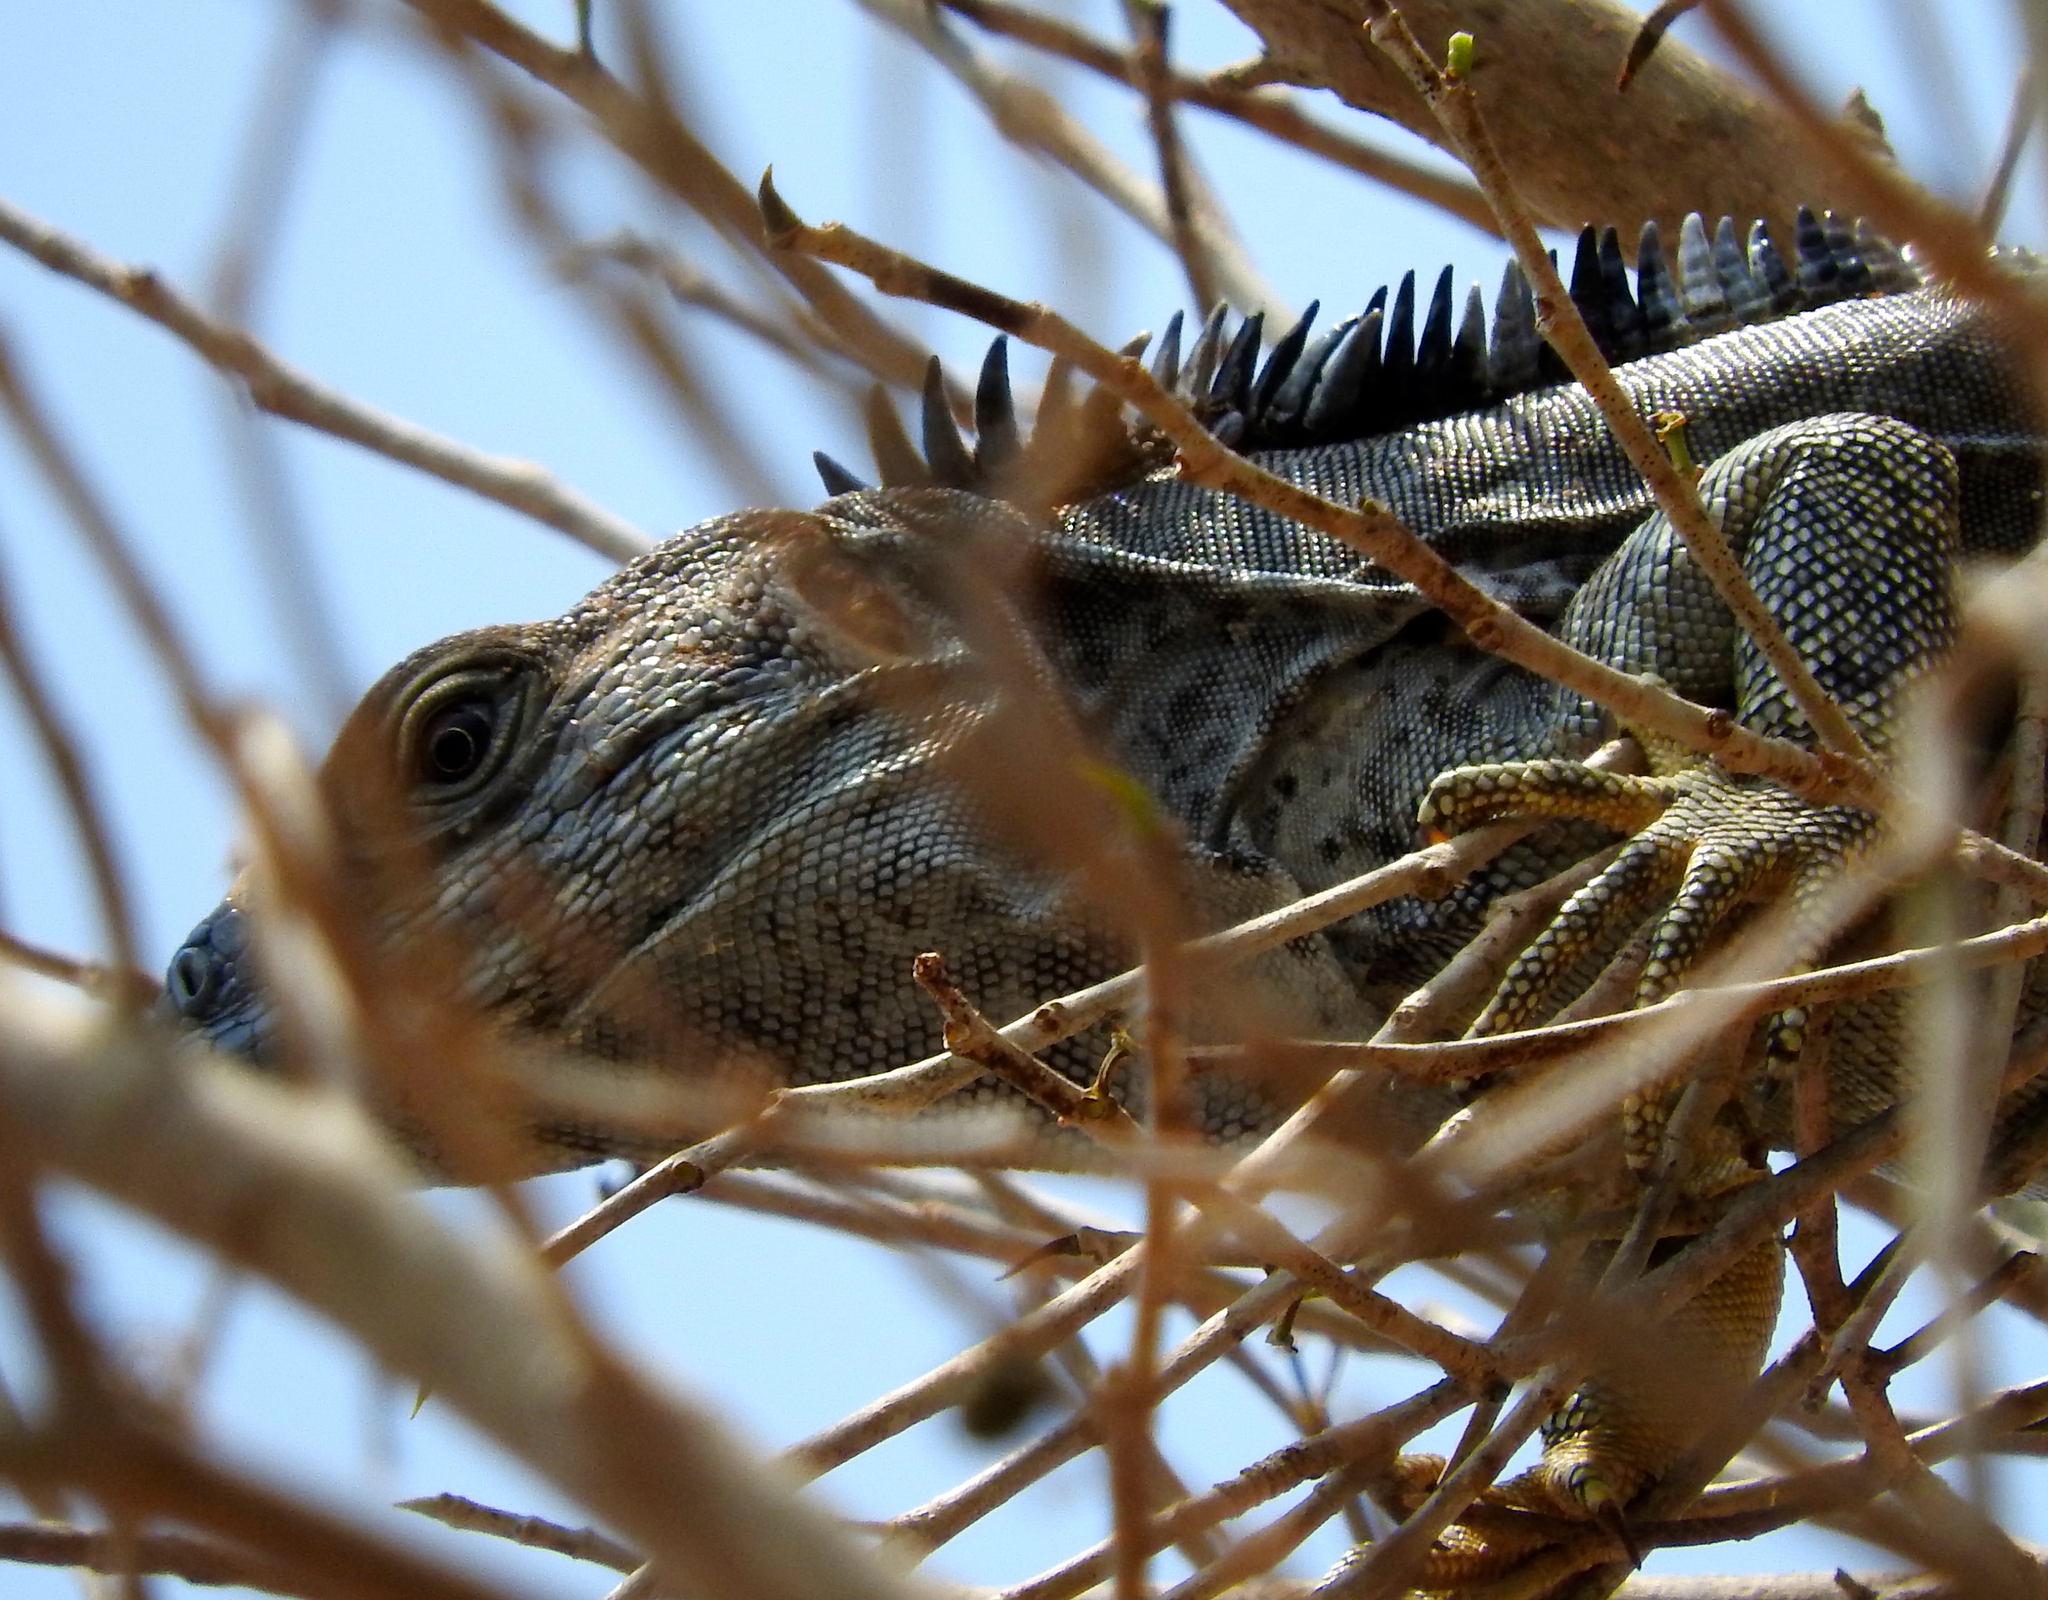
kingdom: Animalia
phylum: Chordata
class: Squamata
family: Iguanidae
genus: Ctenosaura
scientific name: Ctenosaura pectinata
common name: Guerreran spiny-tailed iguana
